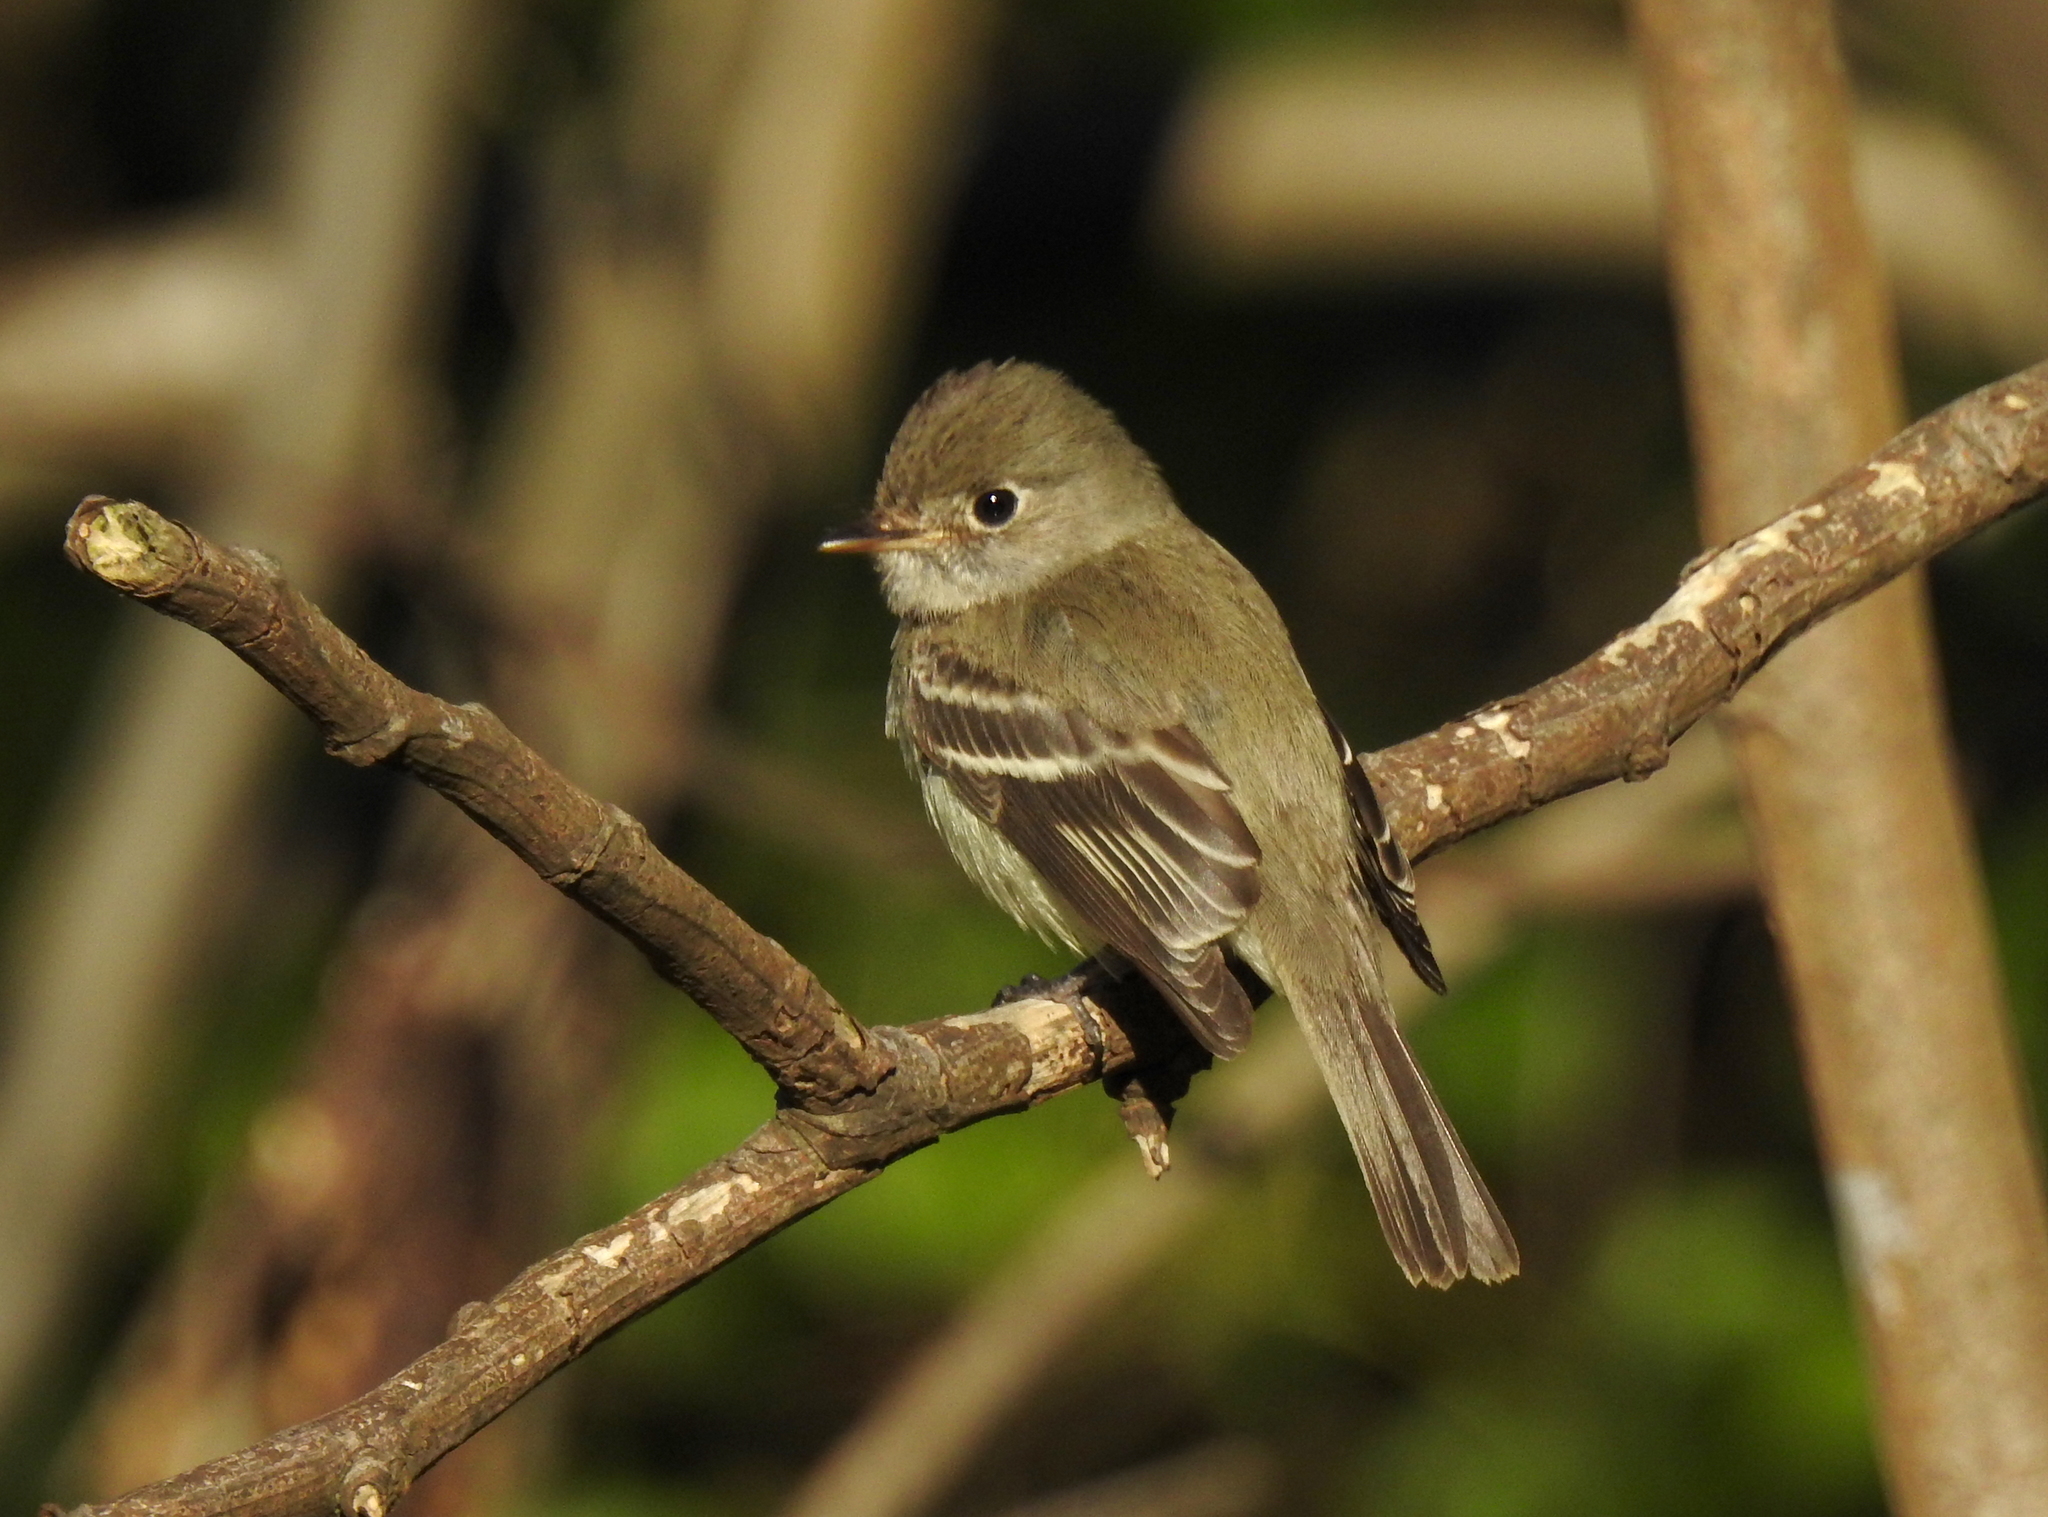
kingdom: Animalia
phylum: Chordata
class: Aves
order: Passeriformes
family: Tyrannidae
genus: Empidonax
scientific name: Empidonax minimus
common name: Least flycatcher
